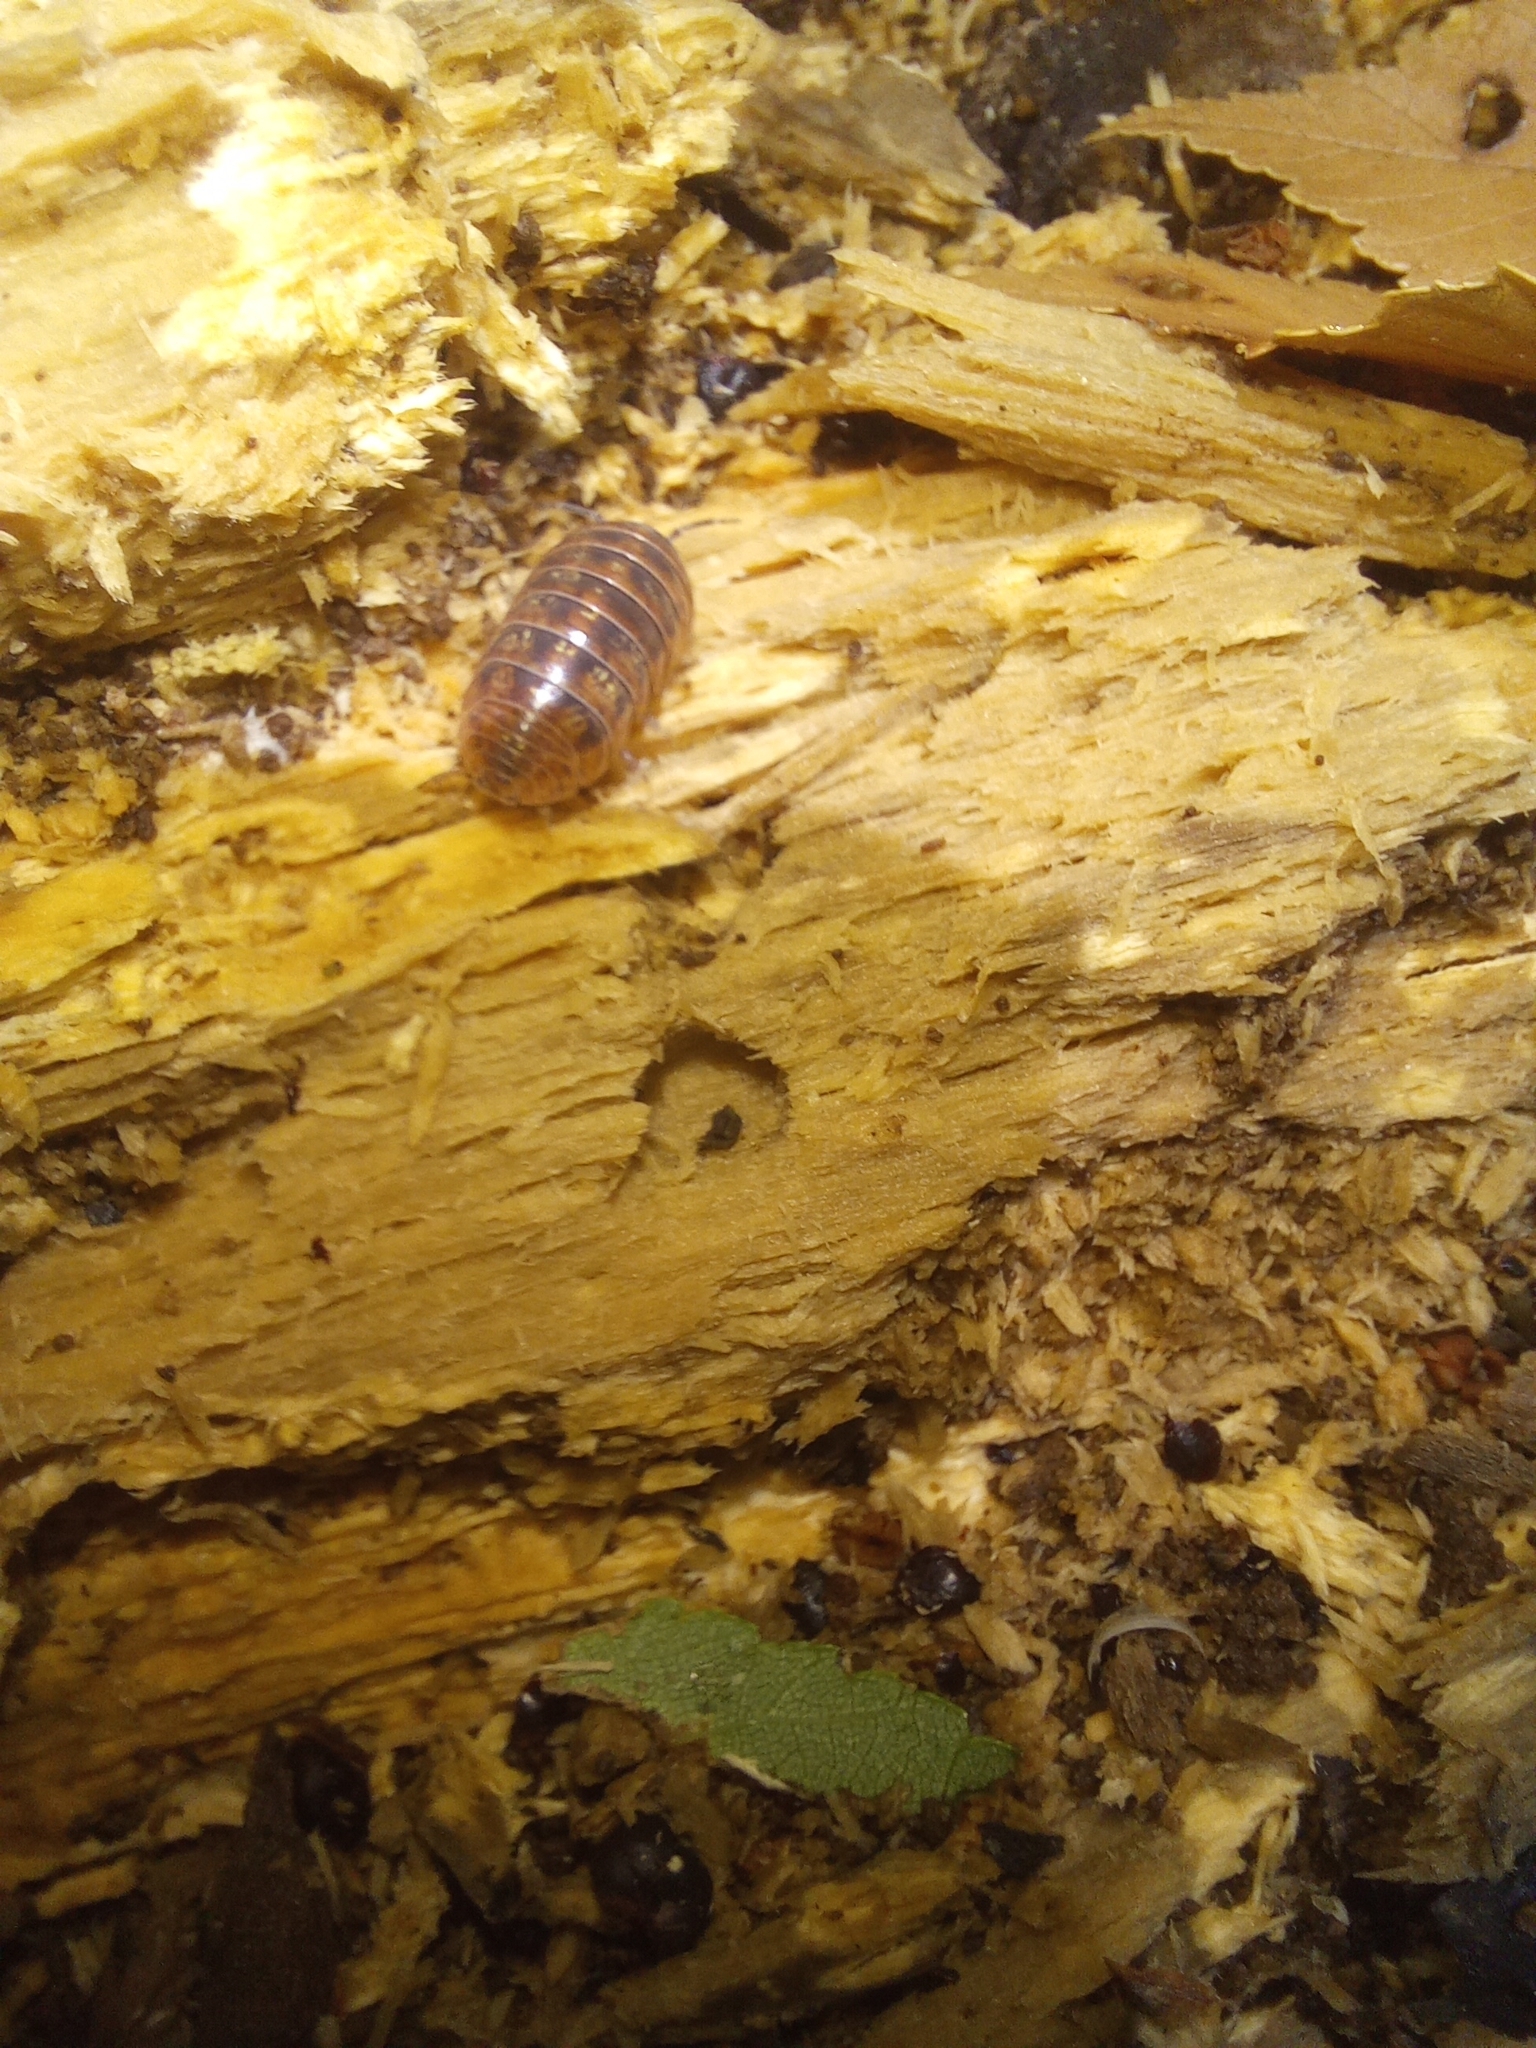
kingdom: Animalia
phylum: Arthropoda
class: Malacostraca
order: Isopoda
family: Armadillidiidae
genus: Armadillidium
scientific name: Armadillidium vulgare
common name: Common pill woodlouse
